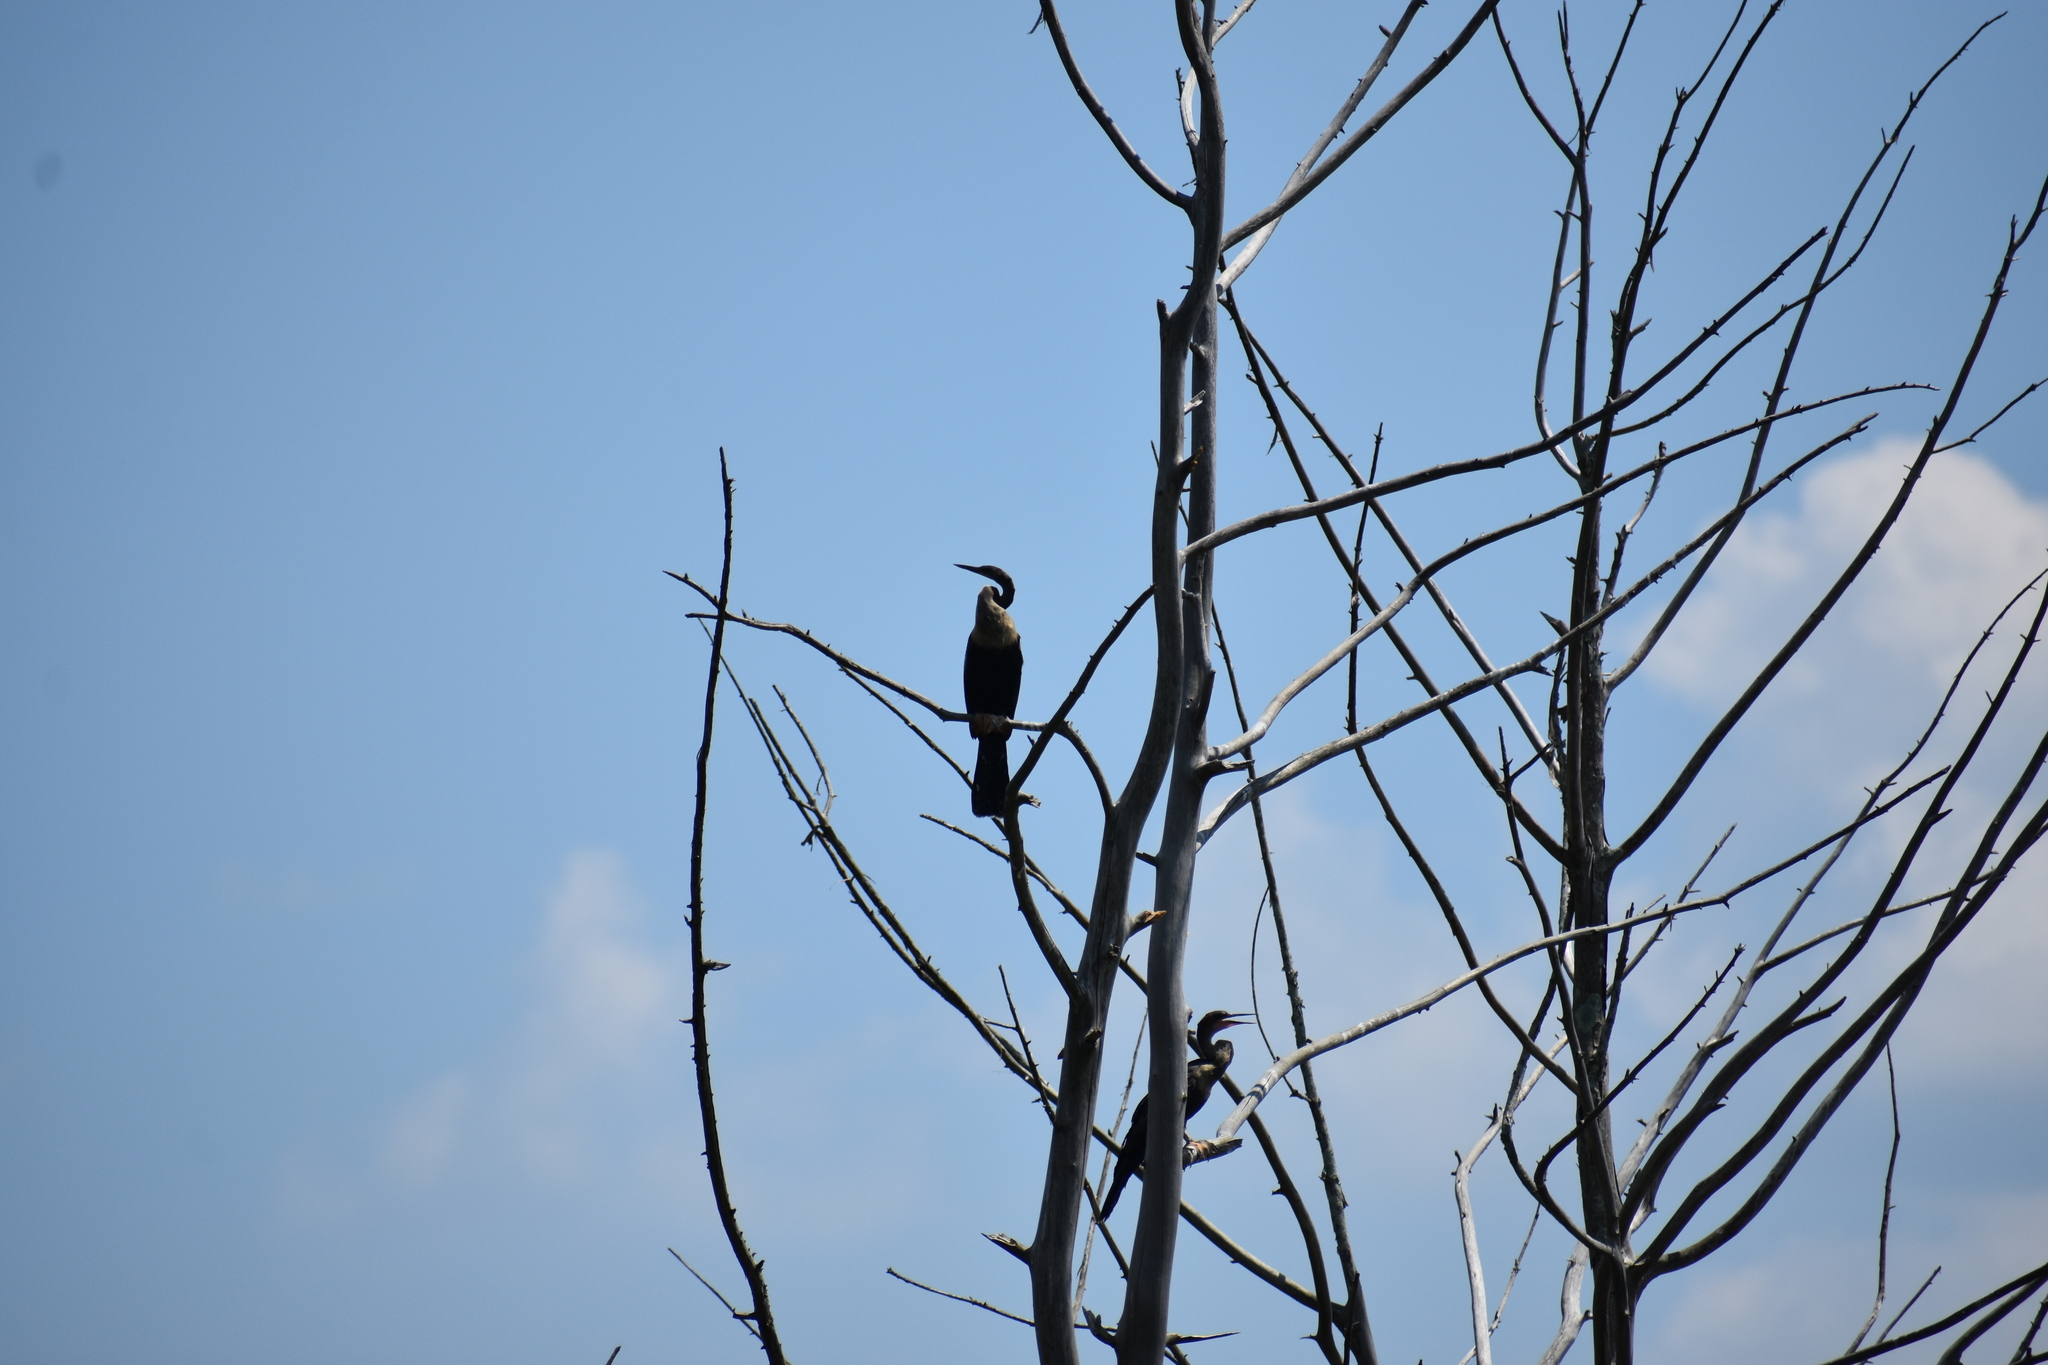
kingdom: Animalia
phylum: Chordata
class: Aves
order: Suliformes
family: Anhingidae
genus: Anhinga
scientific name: Anhinga anhinga
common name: Anhinga
